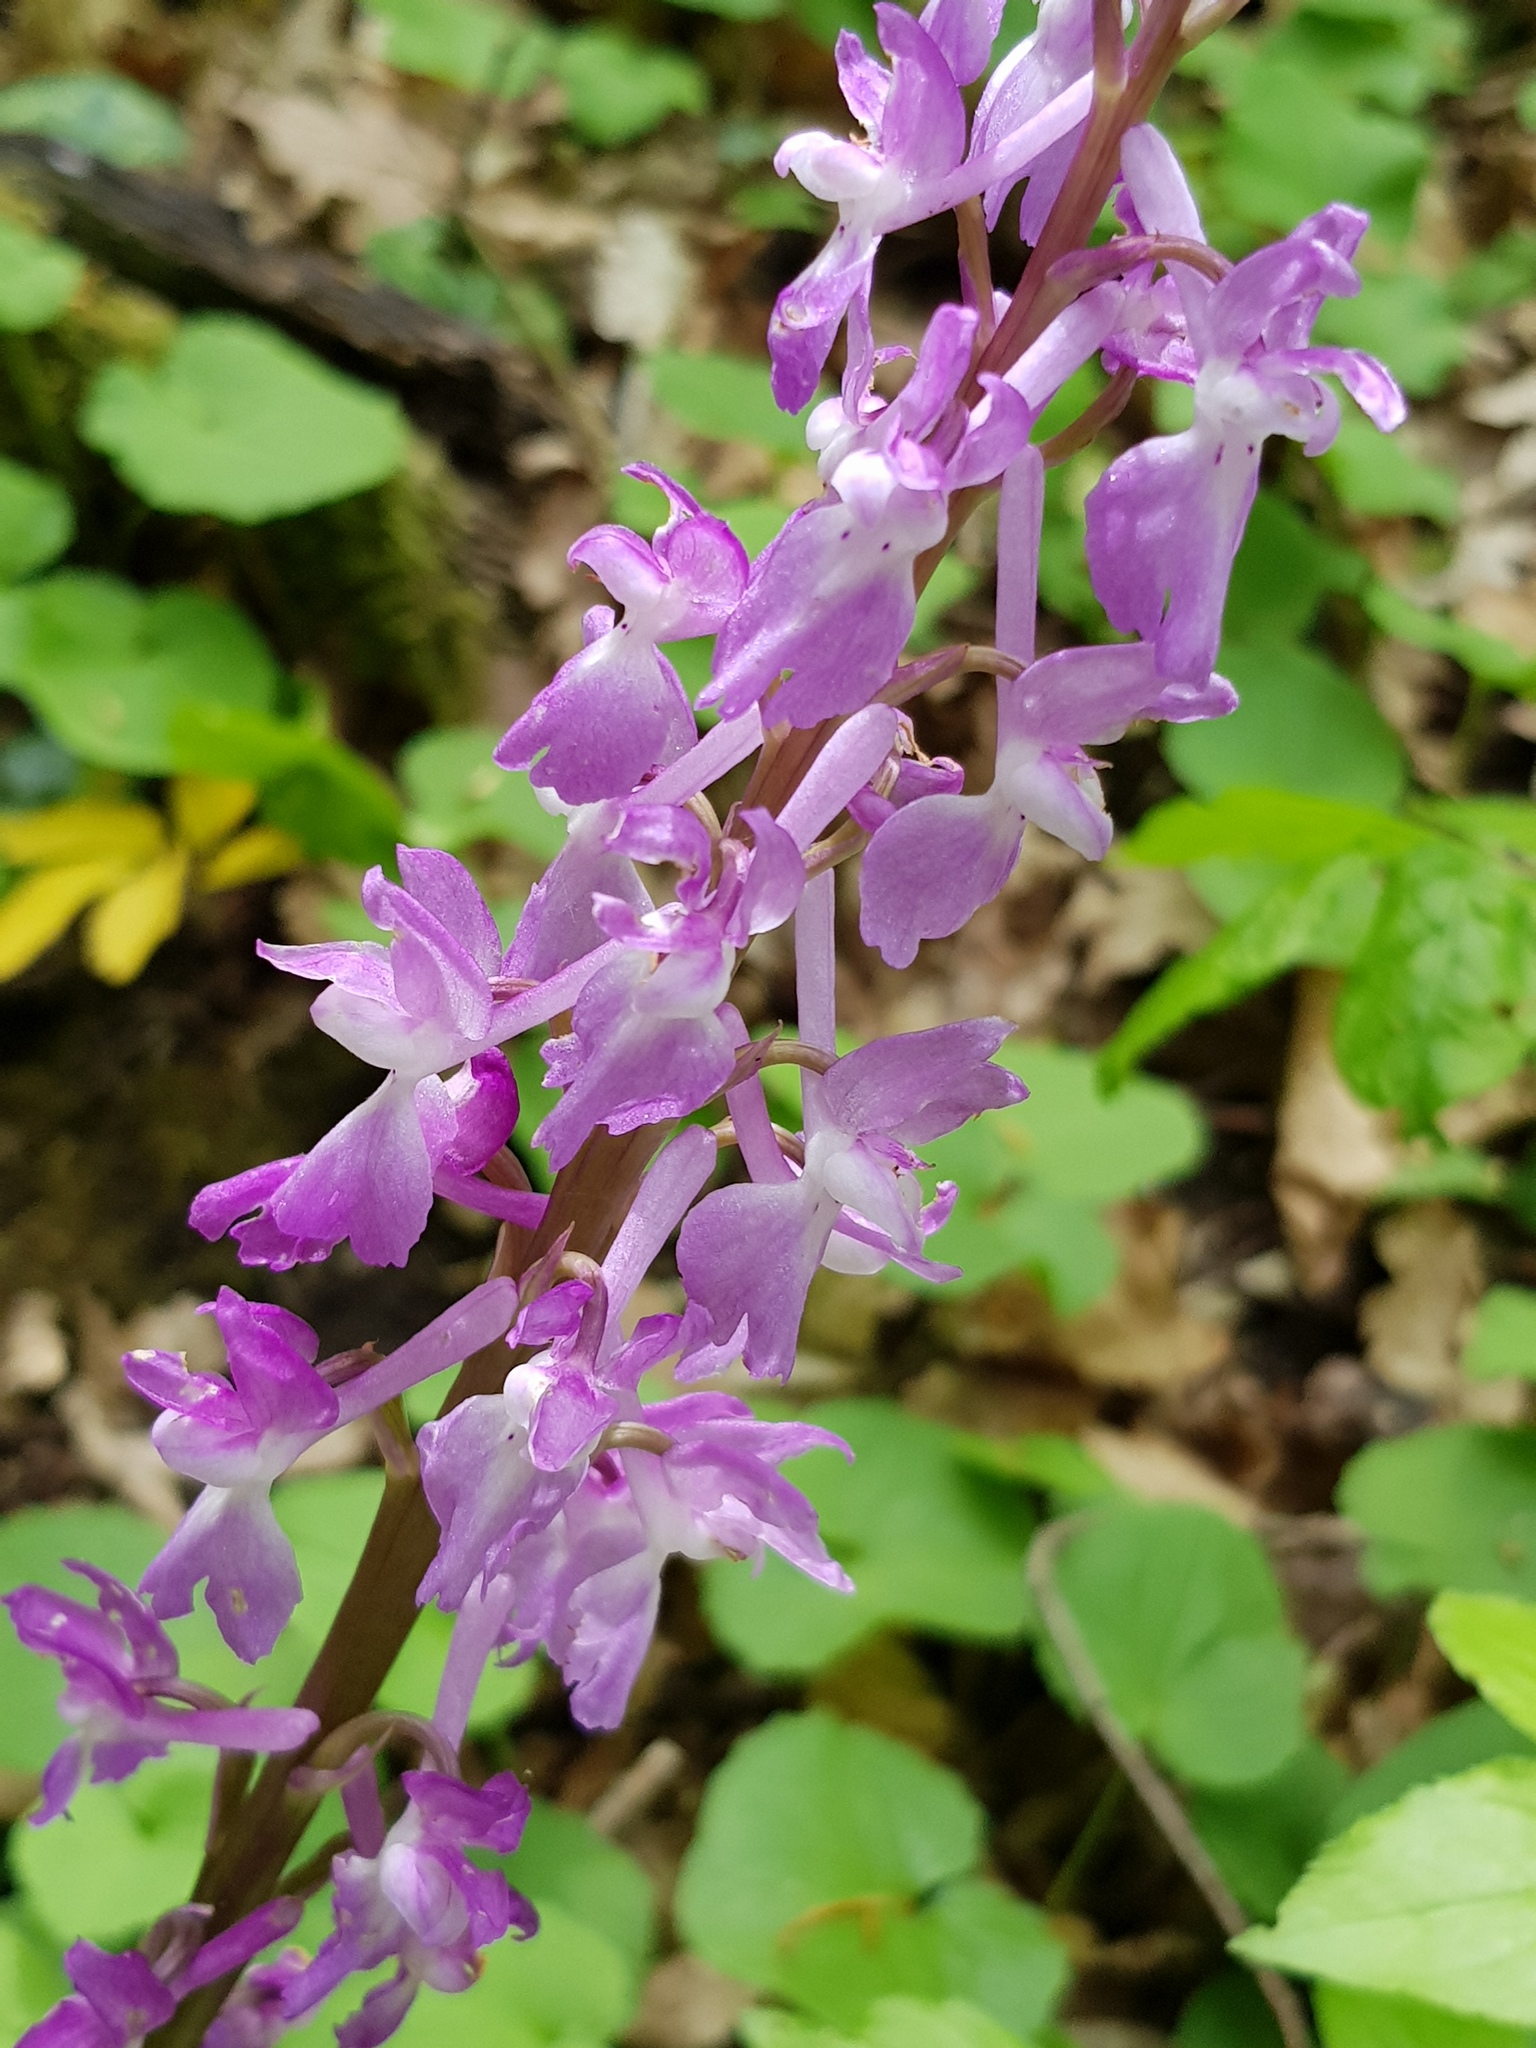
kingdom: Plantae
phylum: Tracheophyta
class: Liliopsida
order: Asparagales
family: Orchidaceae
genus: Orchis
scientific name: Orchis mascula
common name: Early-purple orchid
